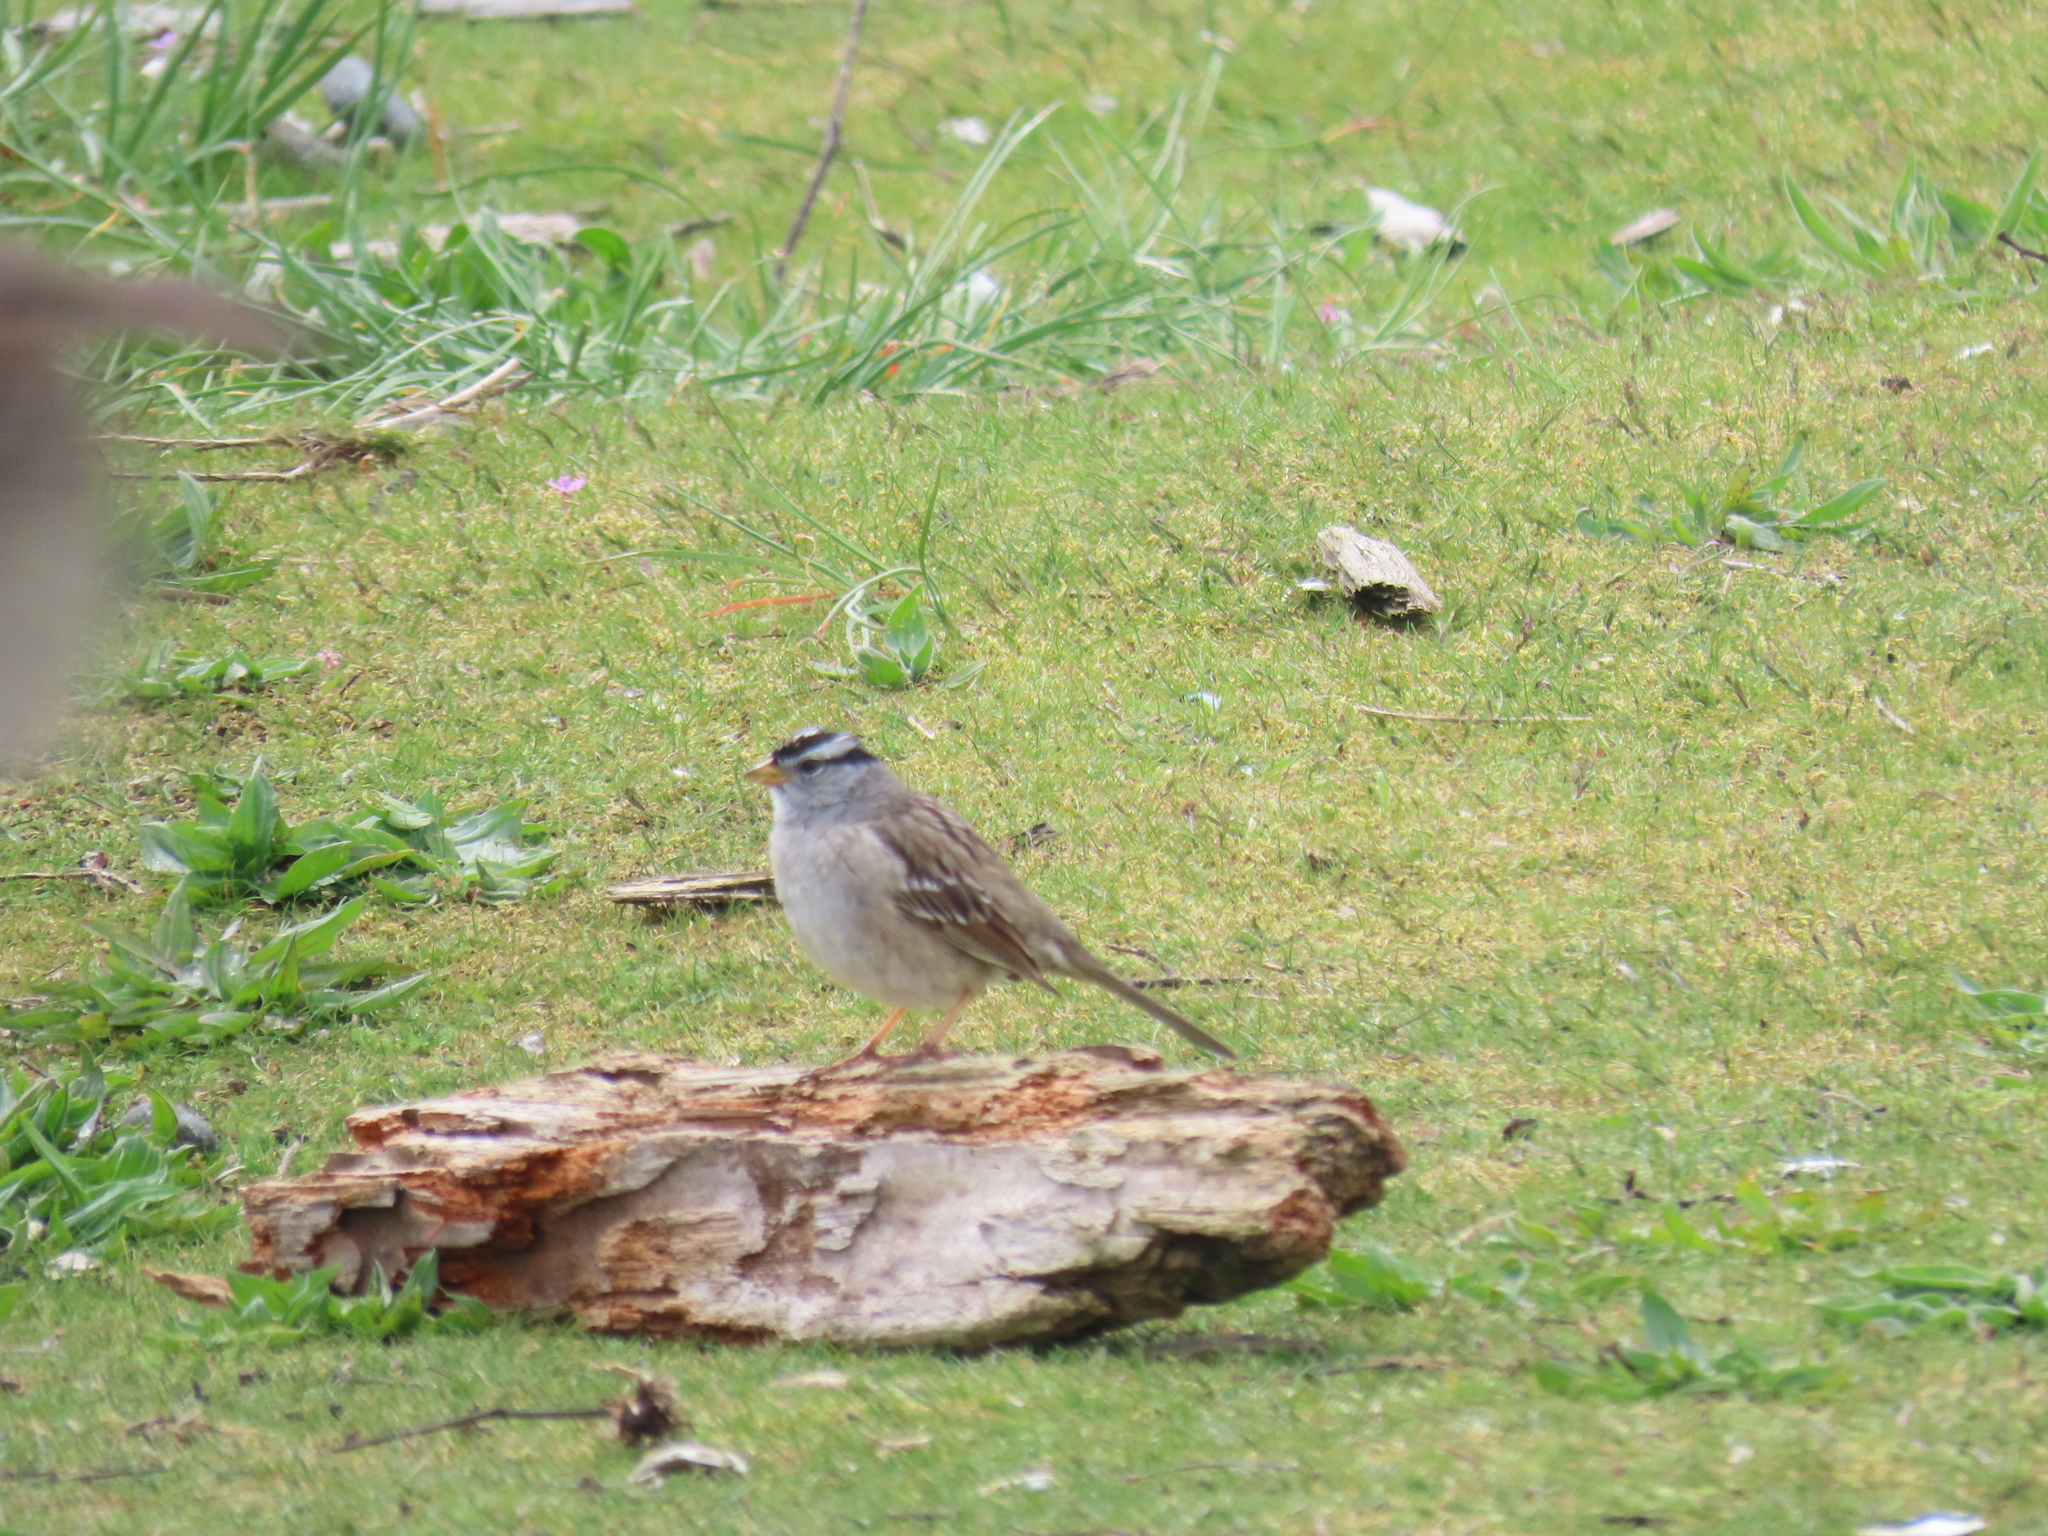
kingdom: Animalia
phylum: Chordata
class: Aves
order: Passeriformes
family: Passerellidae
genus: Zonotrichia
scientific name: Zonotrichia leucophrys
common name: White-crowned sparrow
